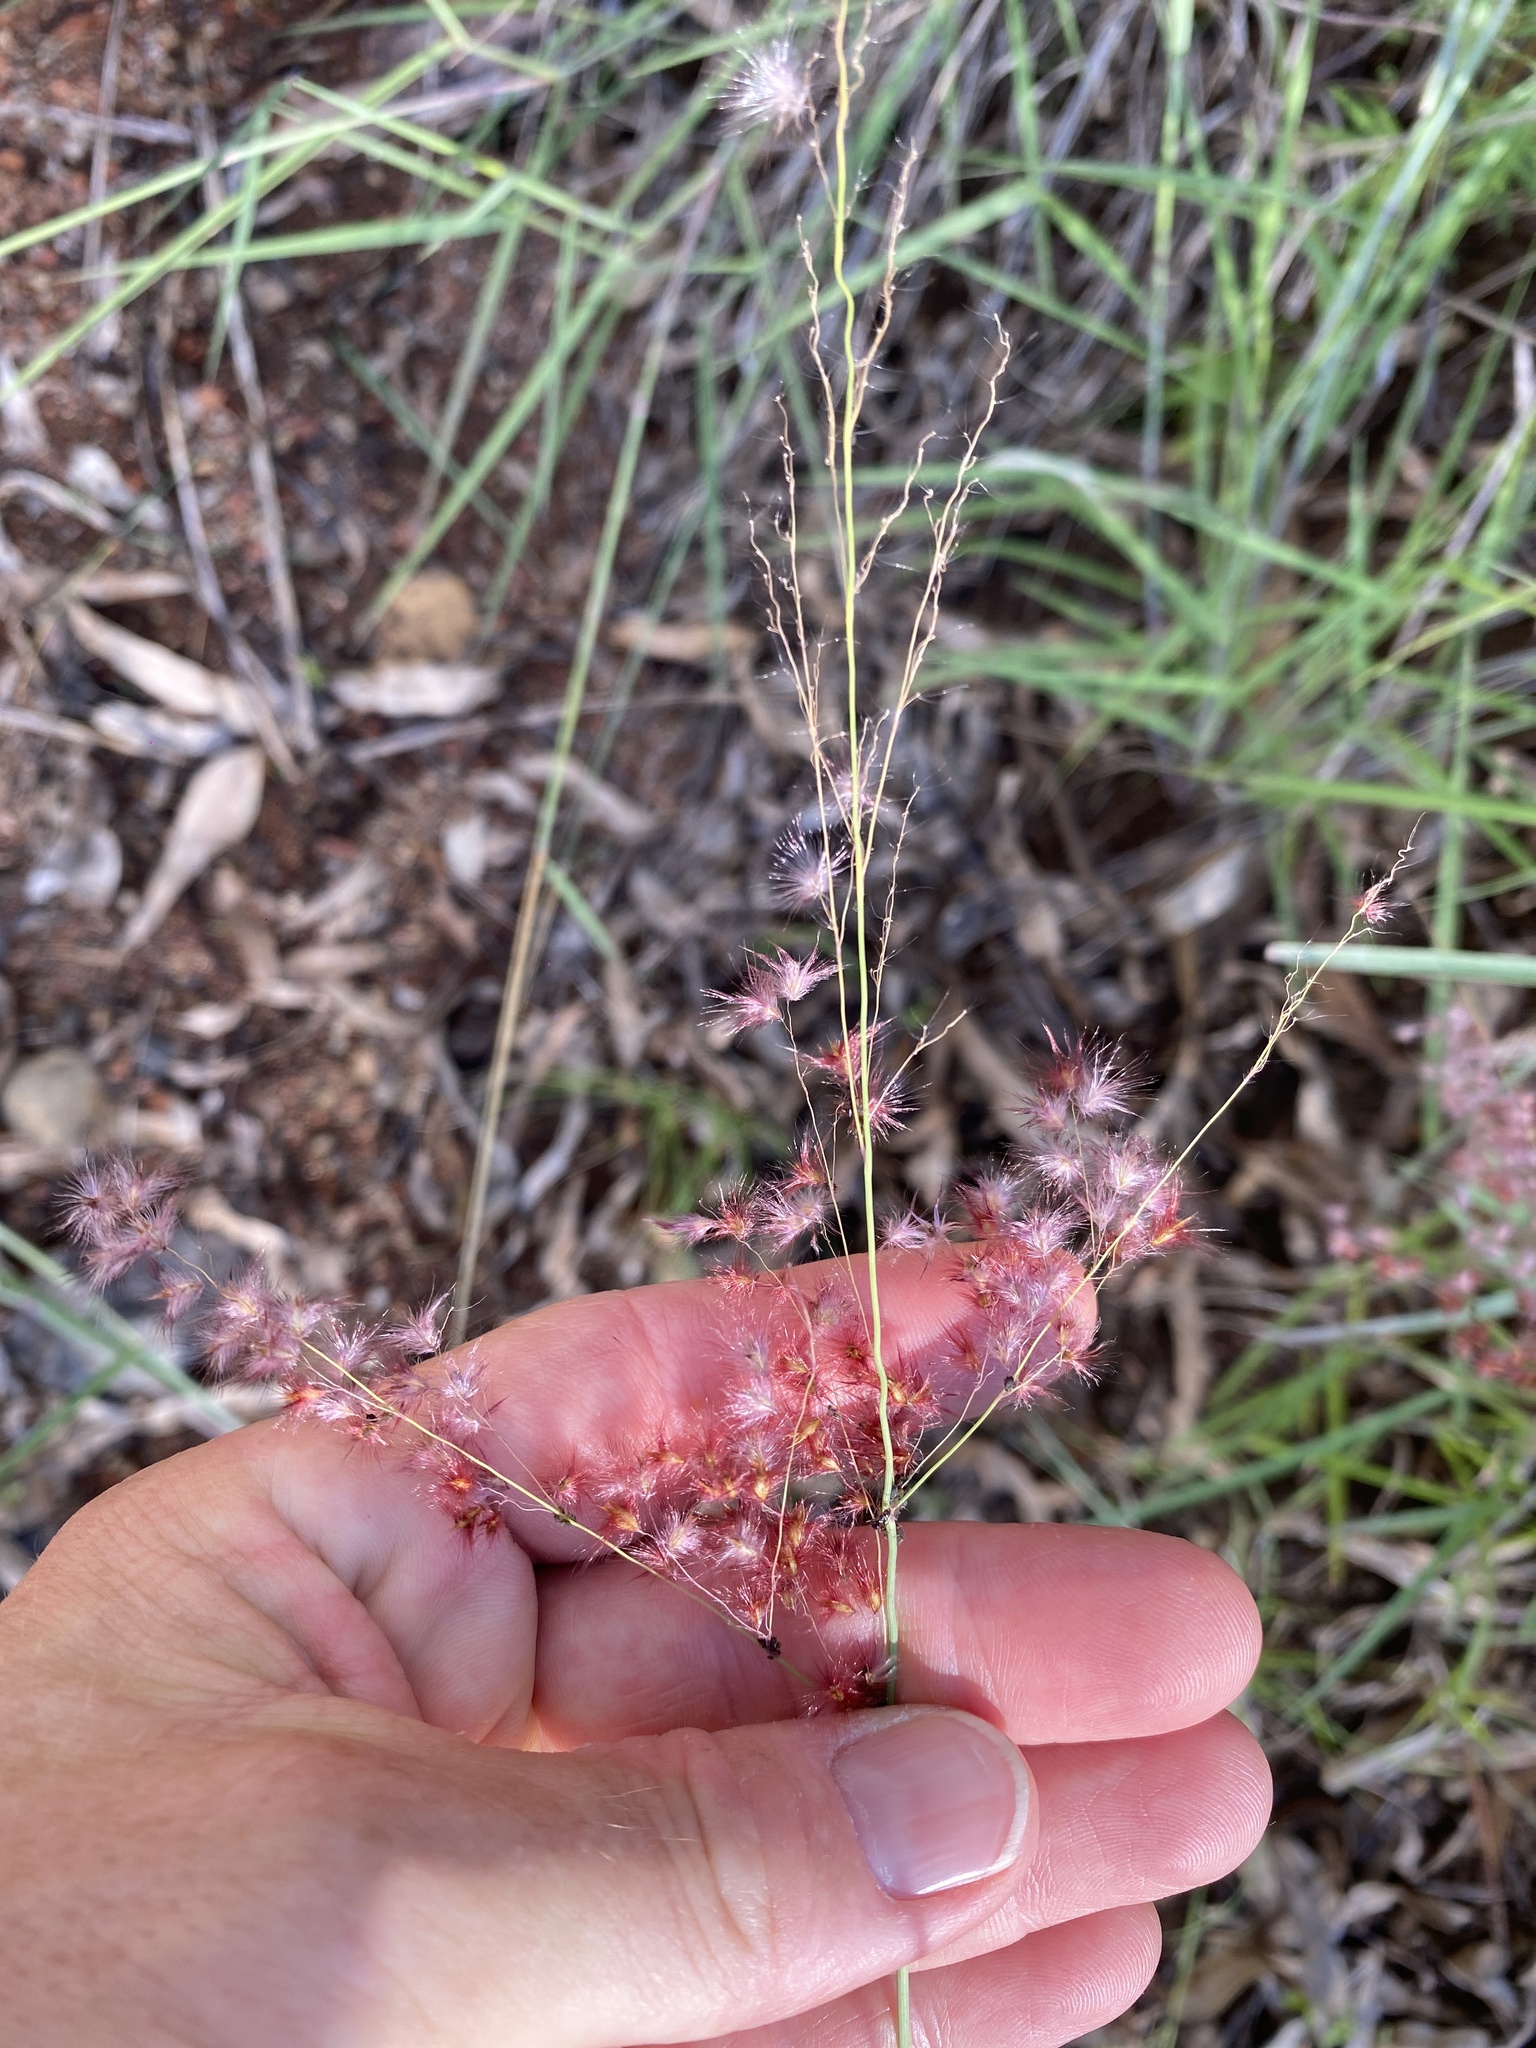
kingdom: Plantae
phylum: Tracheophyta
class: Liliopsida
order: Poales
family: Poaceae
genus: Melinis
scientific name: Melinis repens
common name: Rose natal grass
